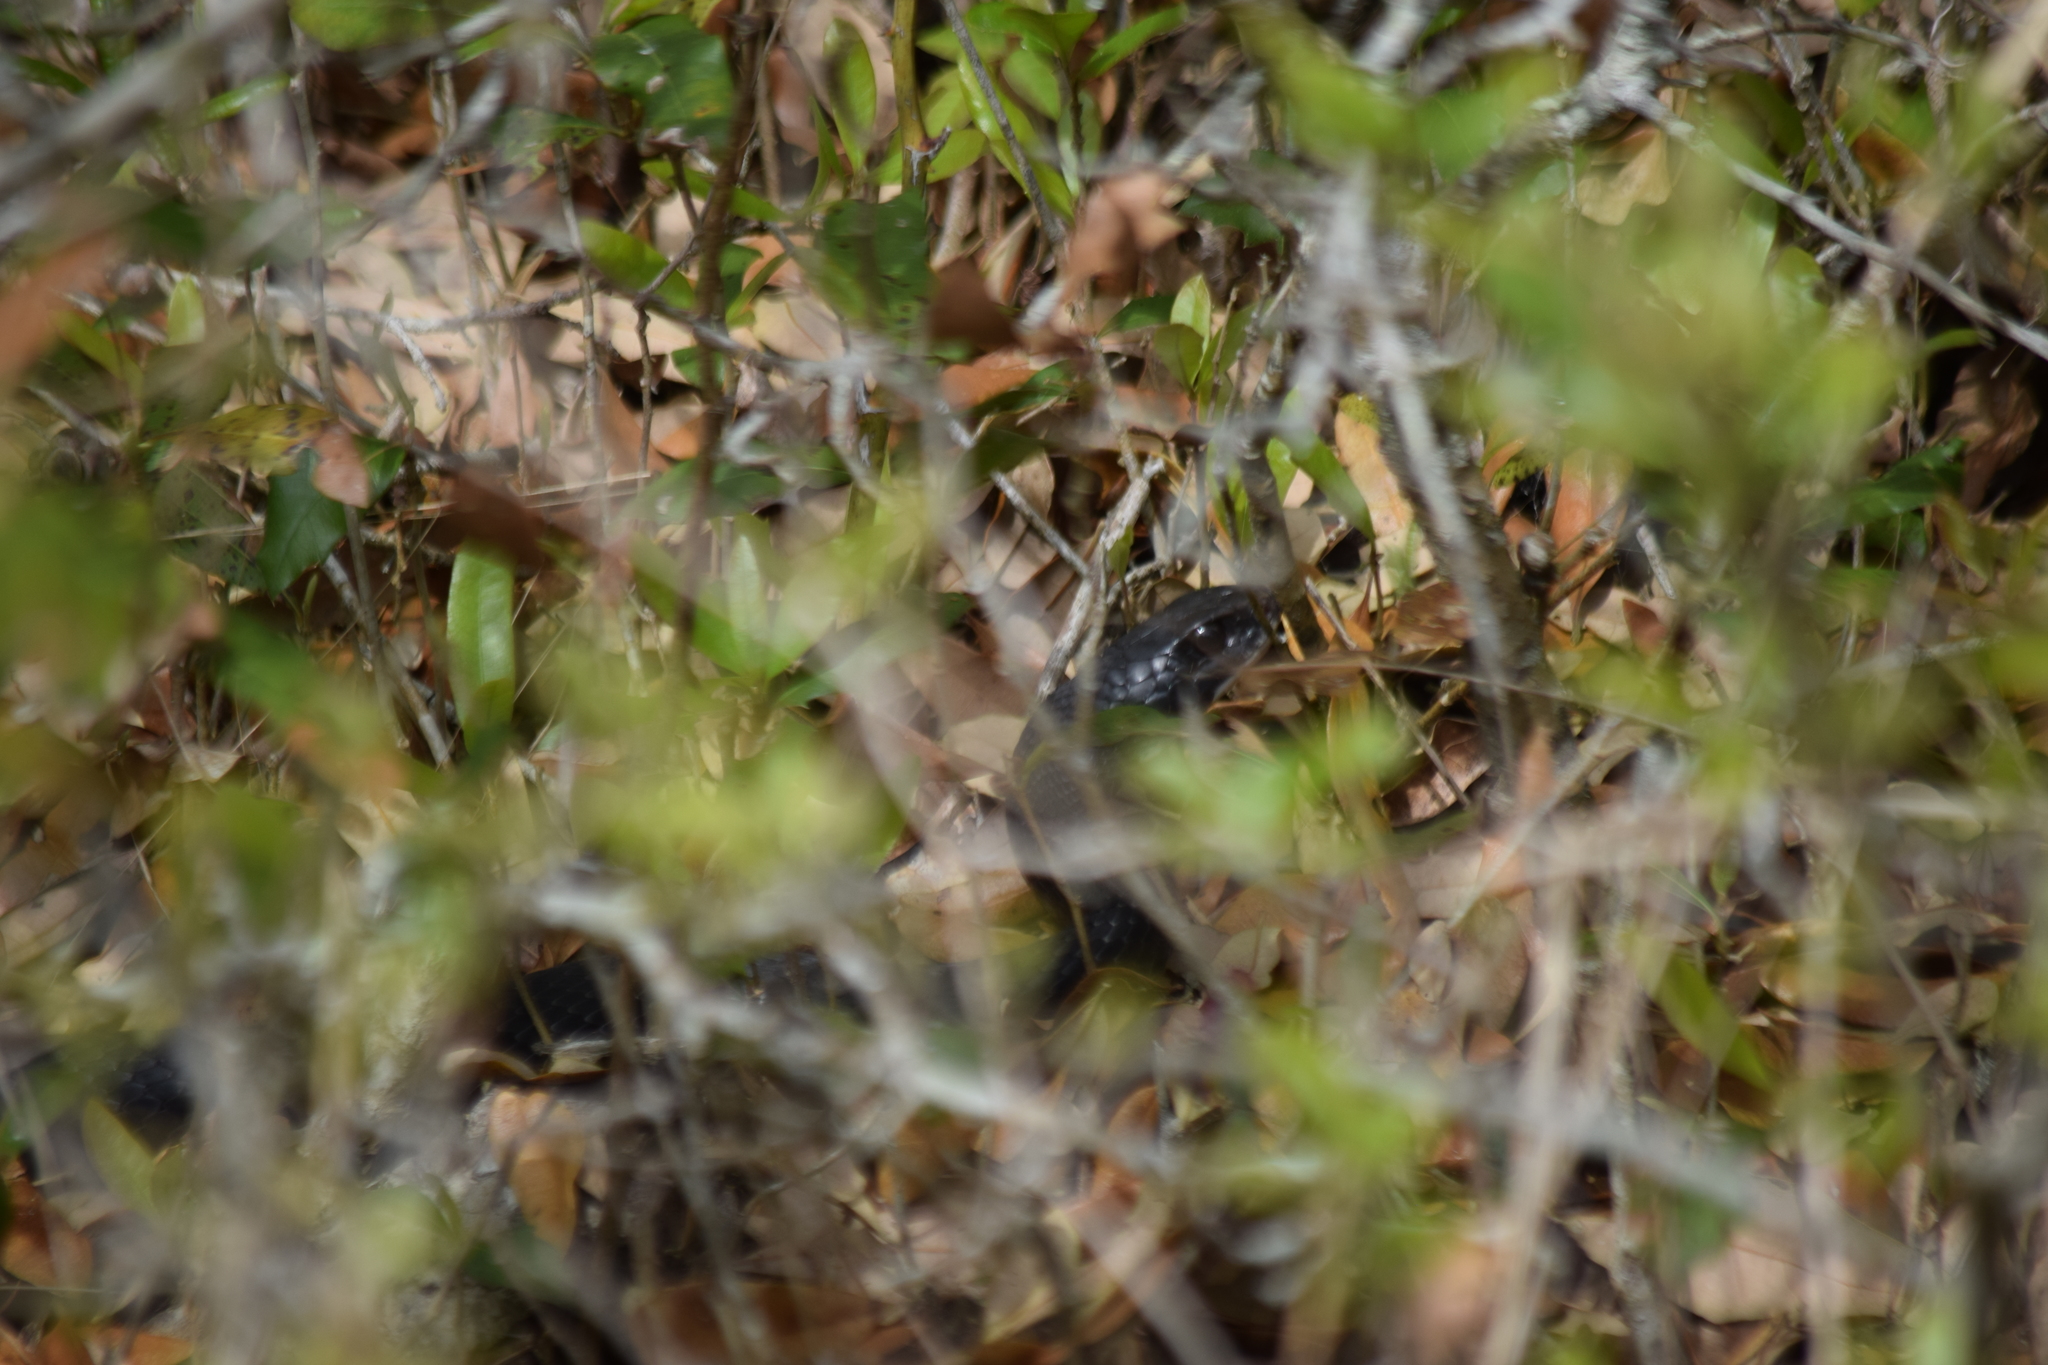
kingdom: Animalia
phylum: Chordata
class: Squamata
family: Colubridae
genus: Coluber
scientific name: Coluber constrictor
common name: Eastern racer
